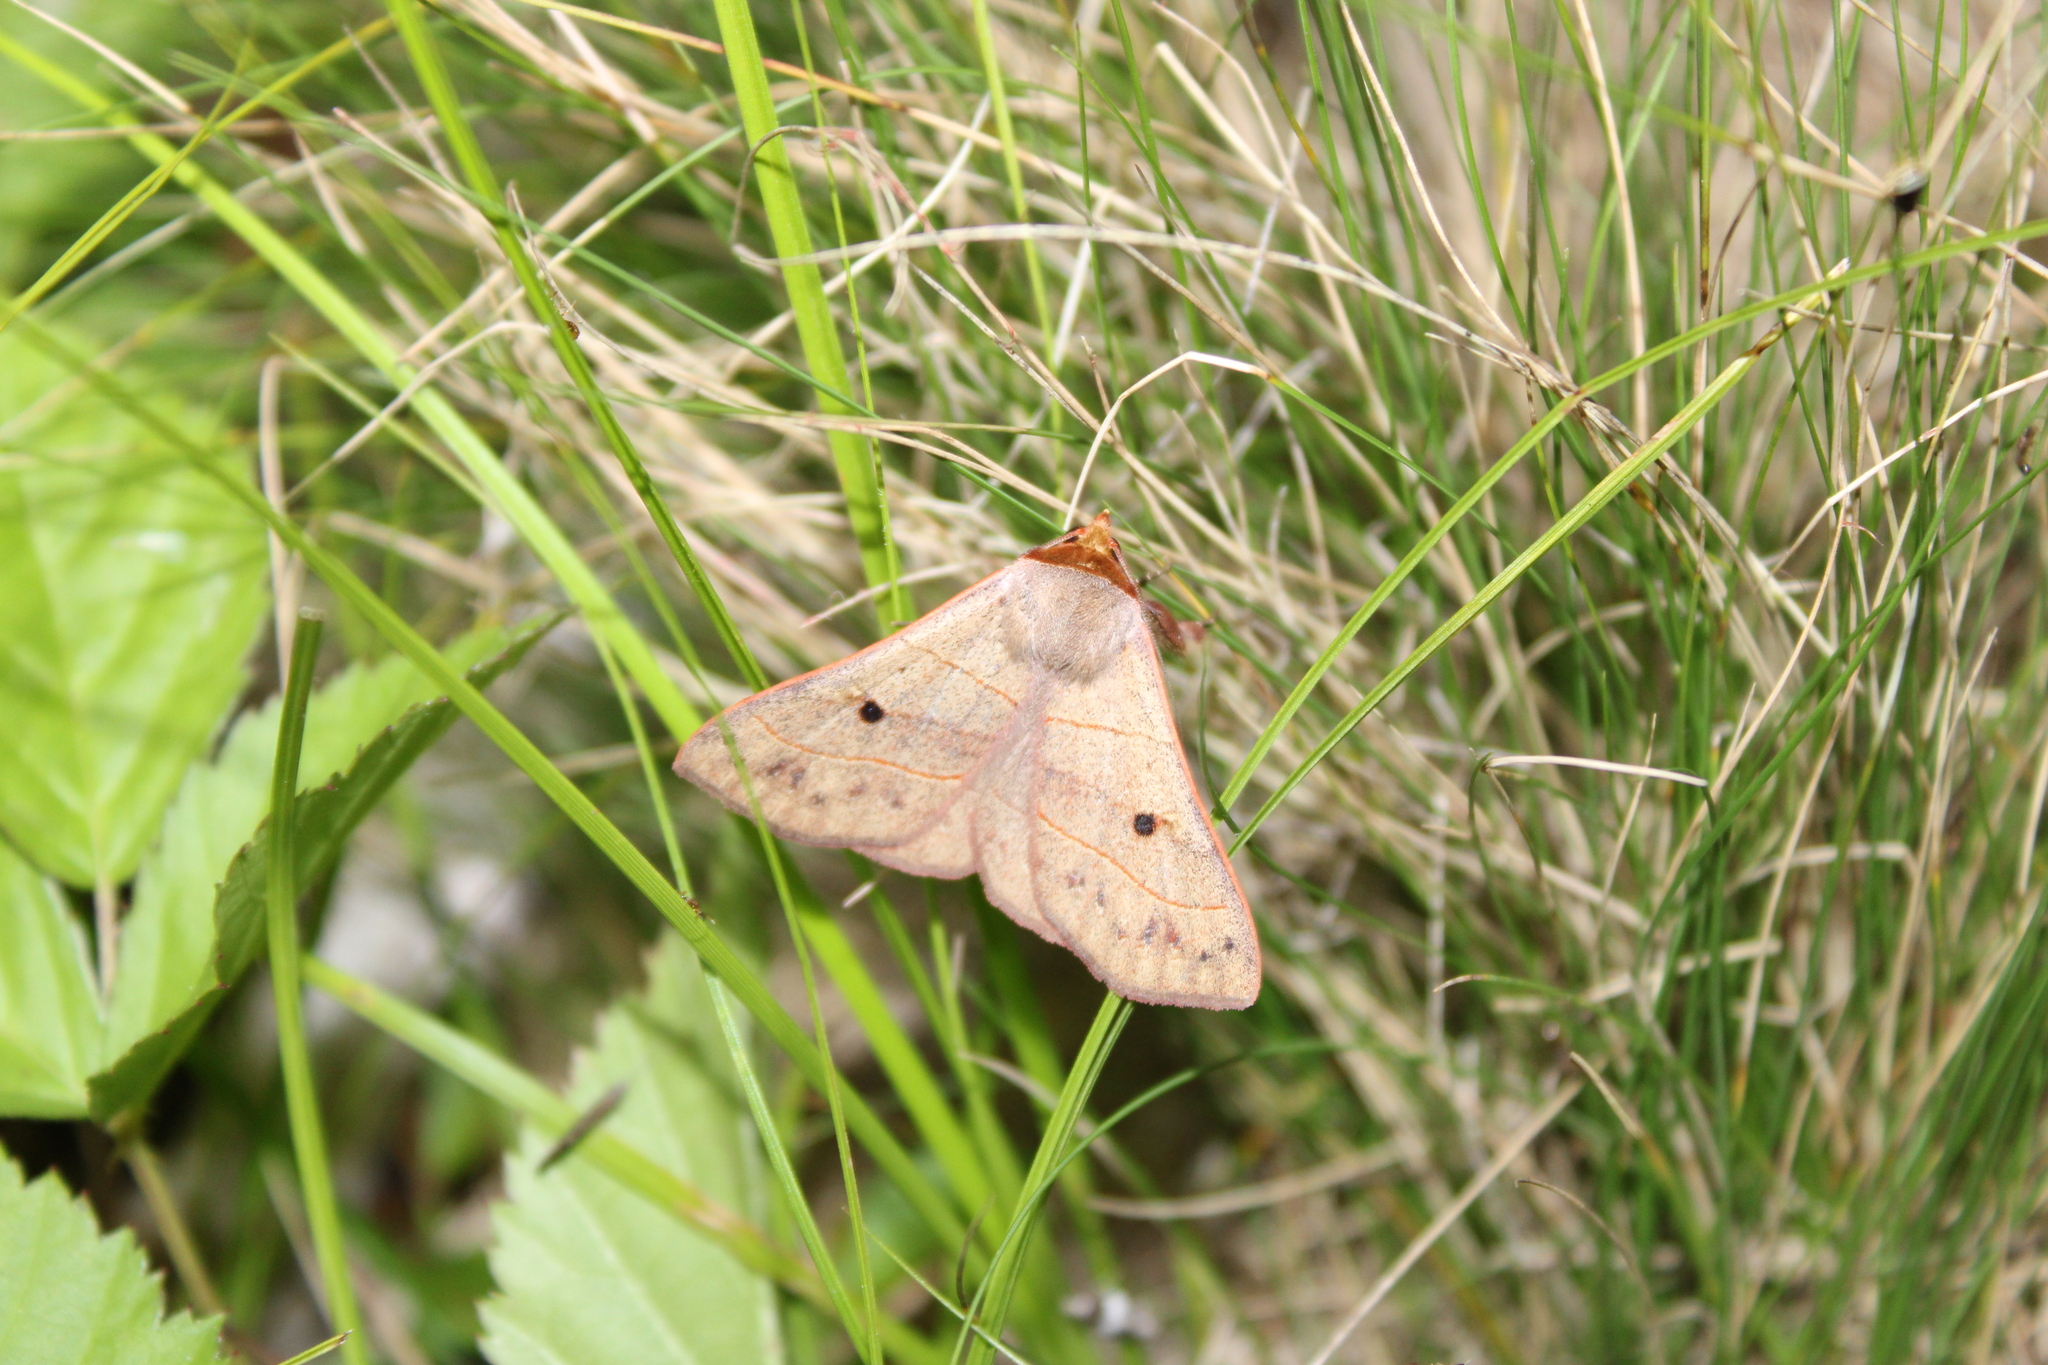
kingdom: Animalia
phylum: Arthropoda
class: Insecta
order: Lepidoptera
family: Erebidae
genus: Panopoda
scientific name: Panopoda rufimargo
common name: Red-lined panopoda moth
